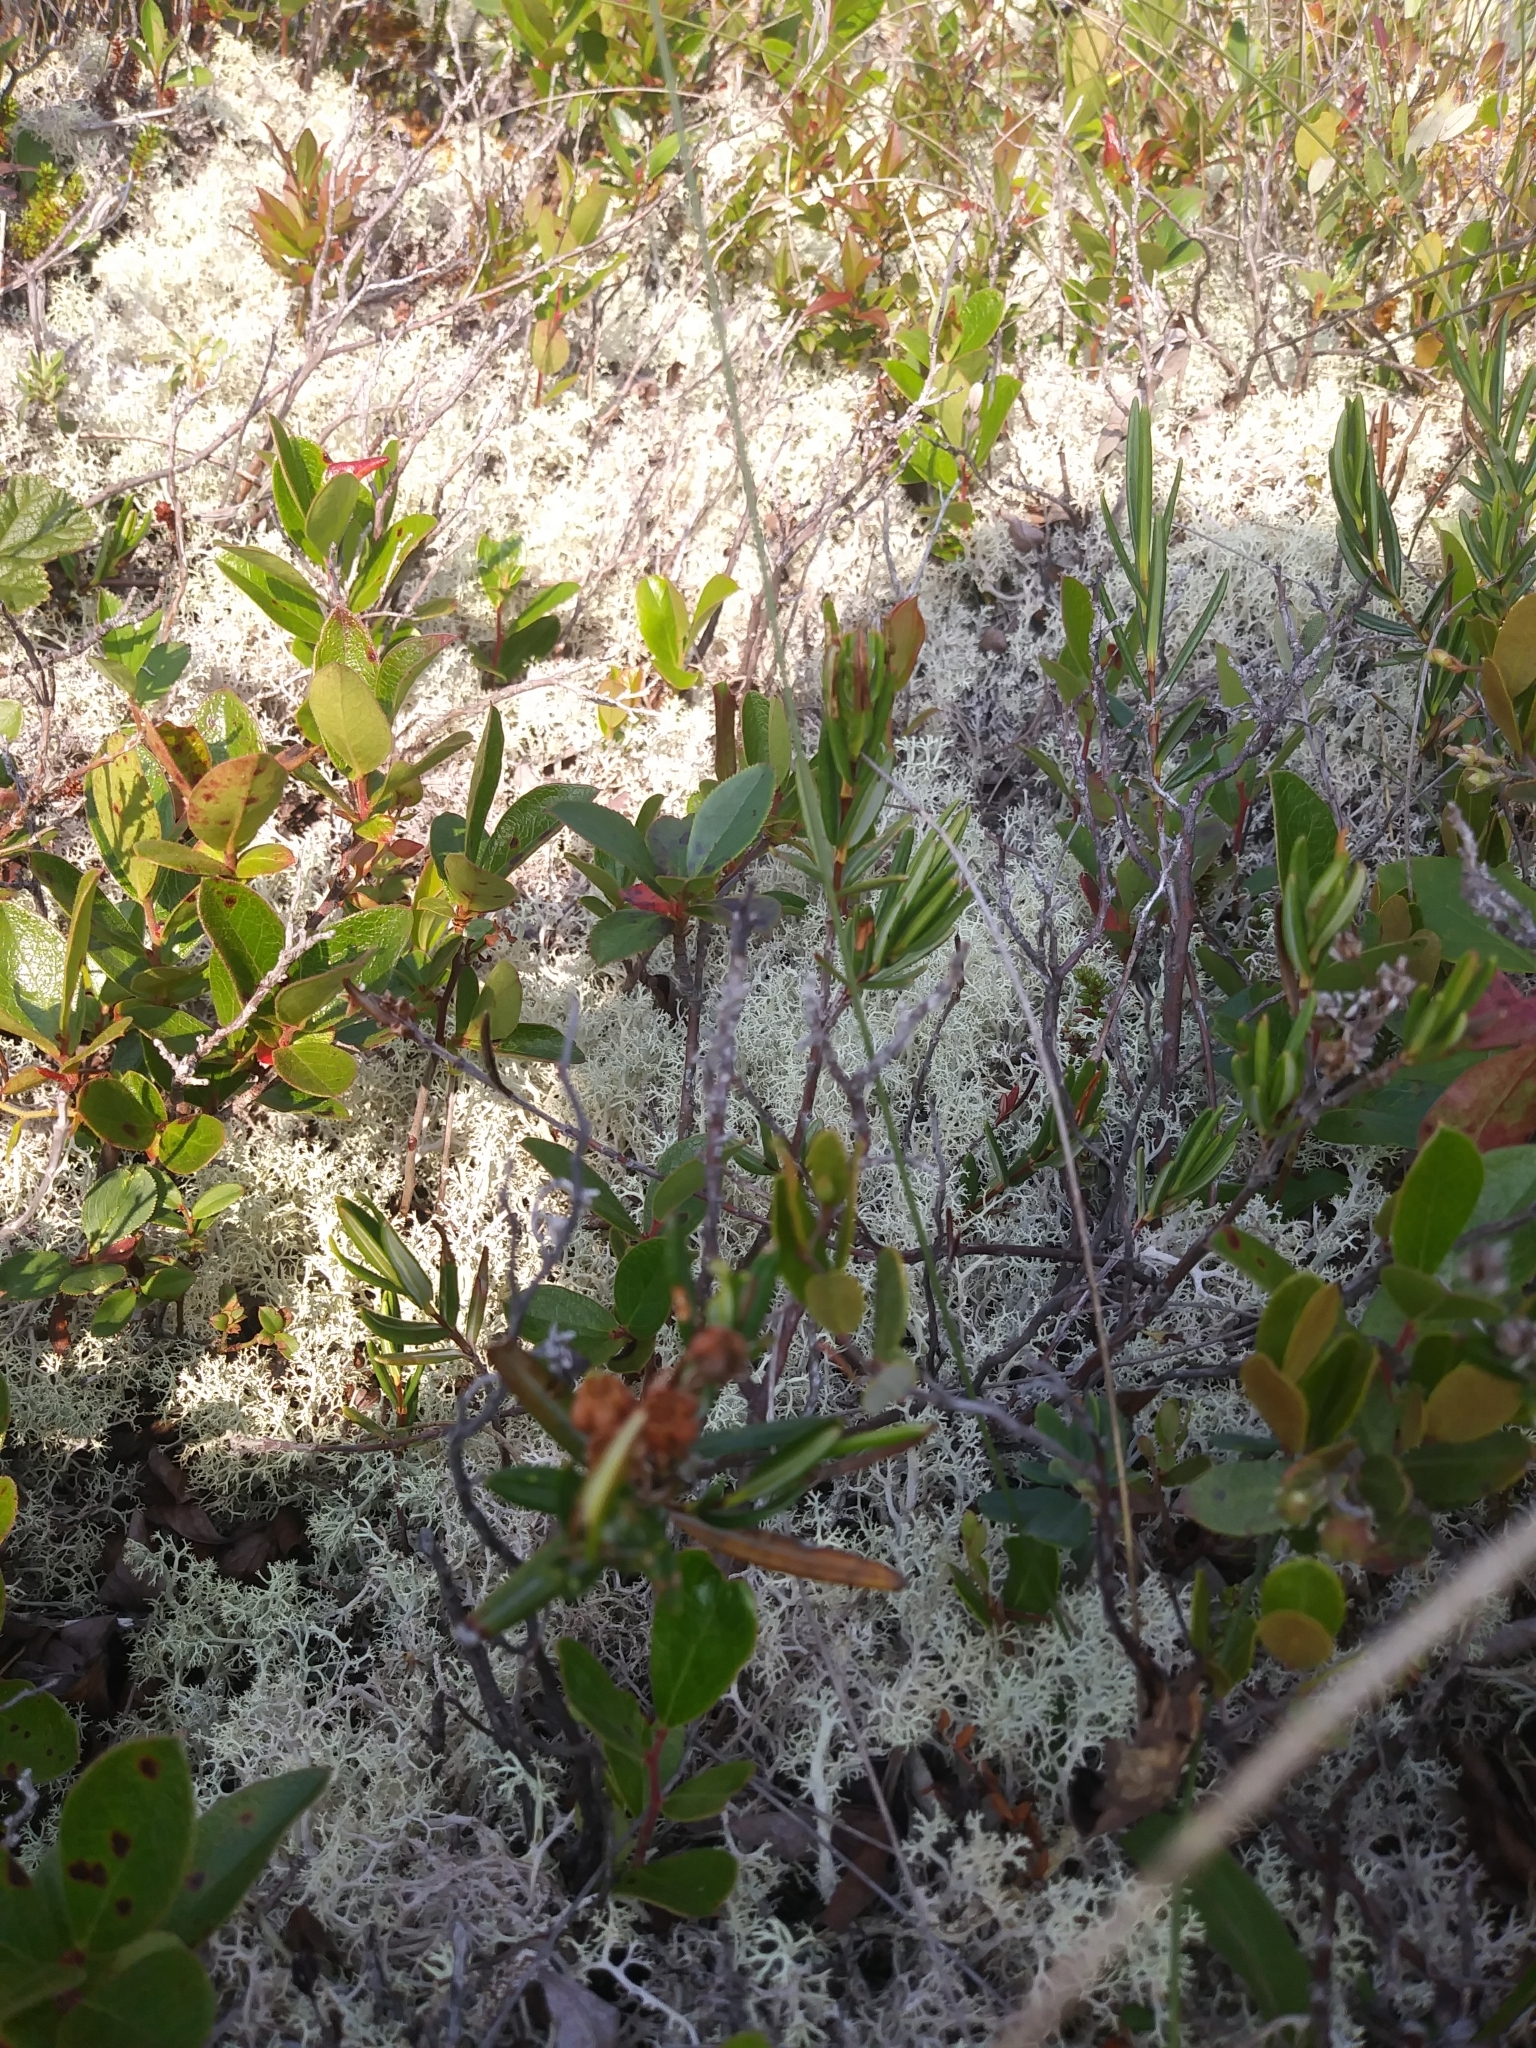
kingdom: Plantae
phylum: Tracheophyta
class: Magnoliopsida
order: Ericales
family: Ericaceae
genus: Kalmia
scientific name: Kalmia polifolia
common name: Bog-laurel
